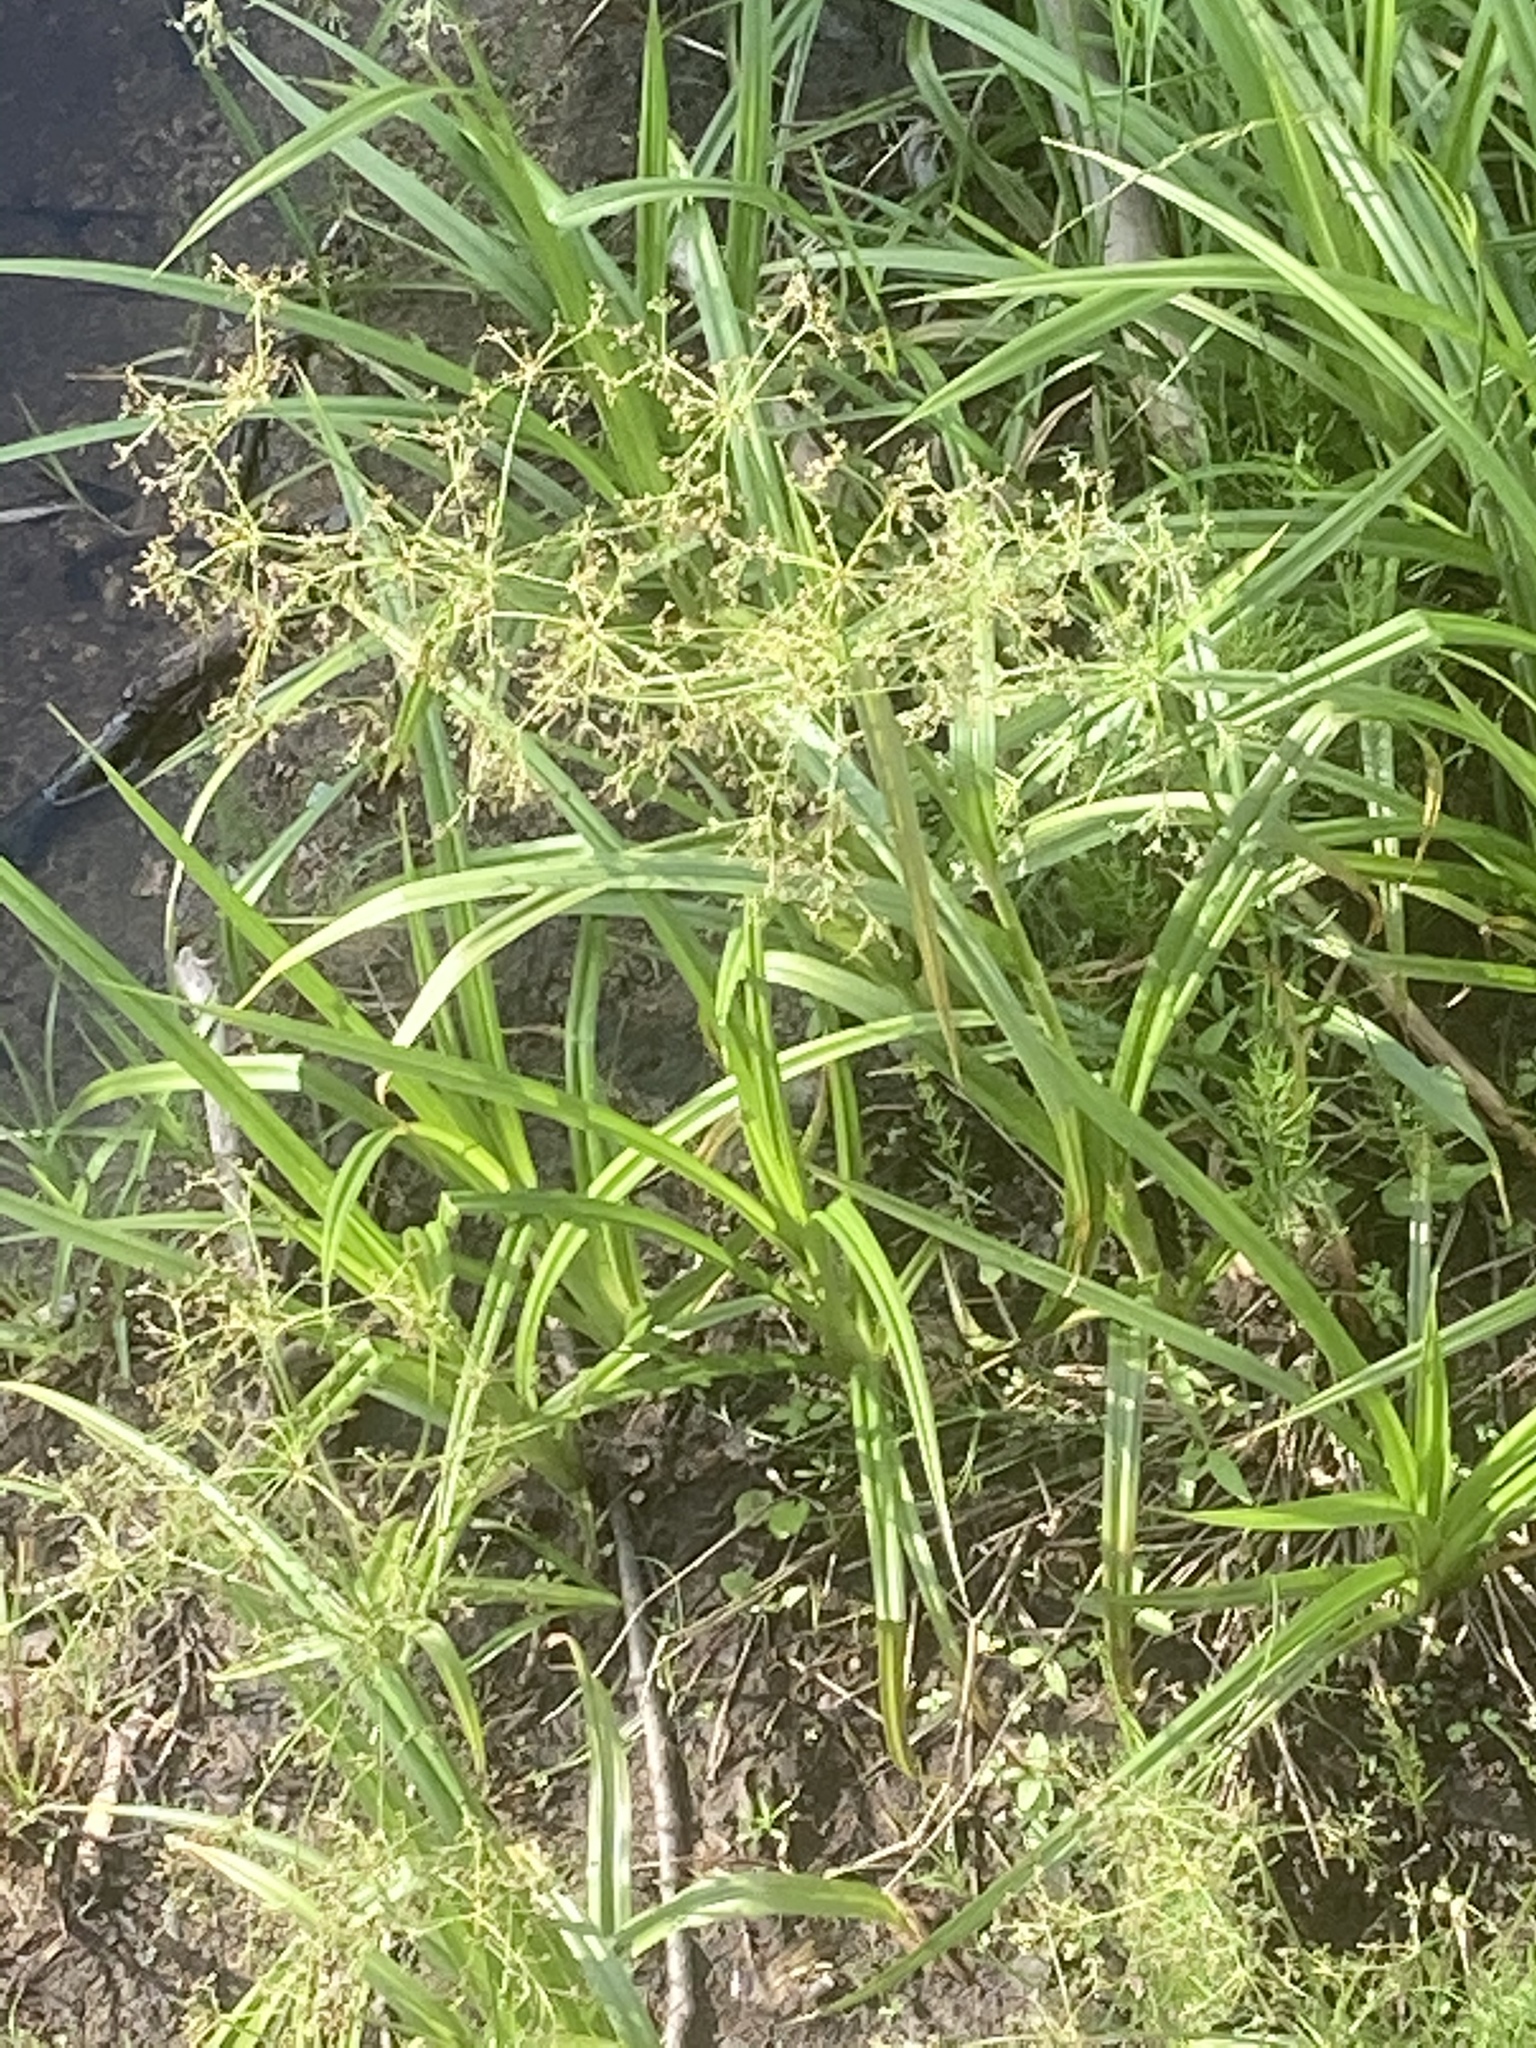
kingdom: Plantae
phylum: Tracheophyta
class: Liliopsida
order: Poales
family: Cyperaceae
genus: Scirpus
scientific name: Scirpus sylvaticus
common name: Wood club-rush
